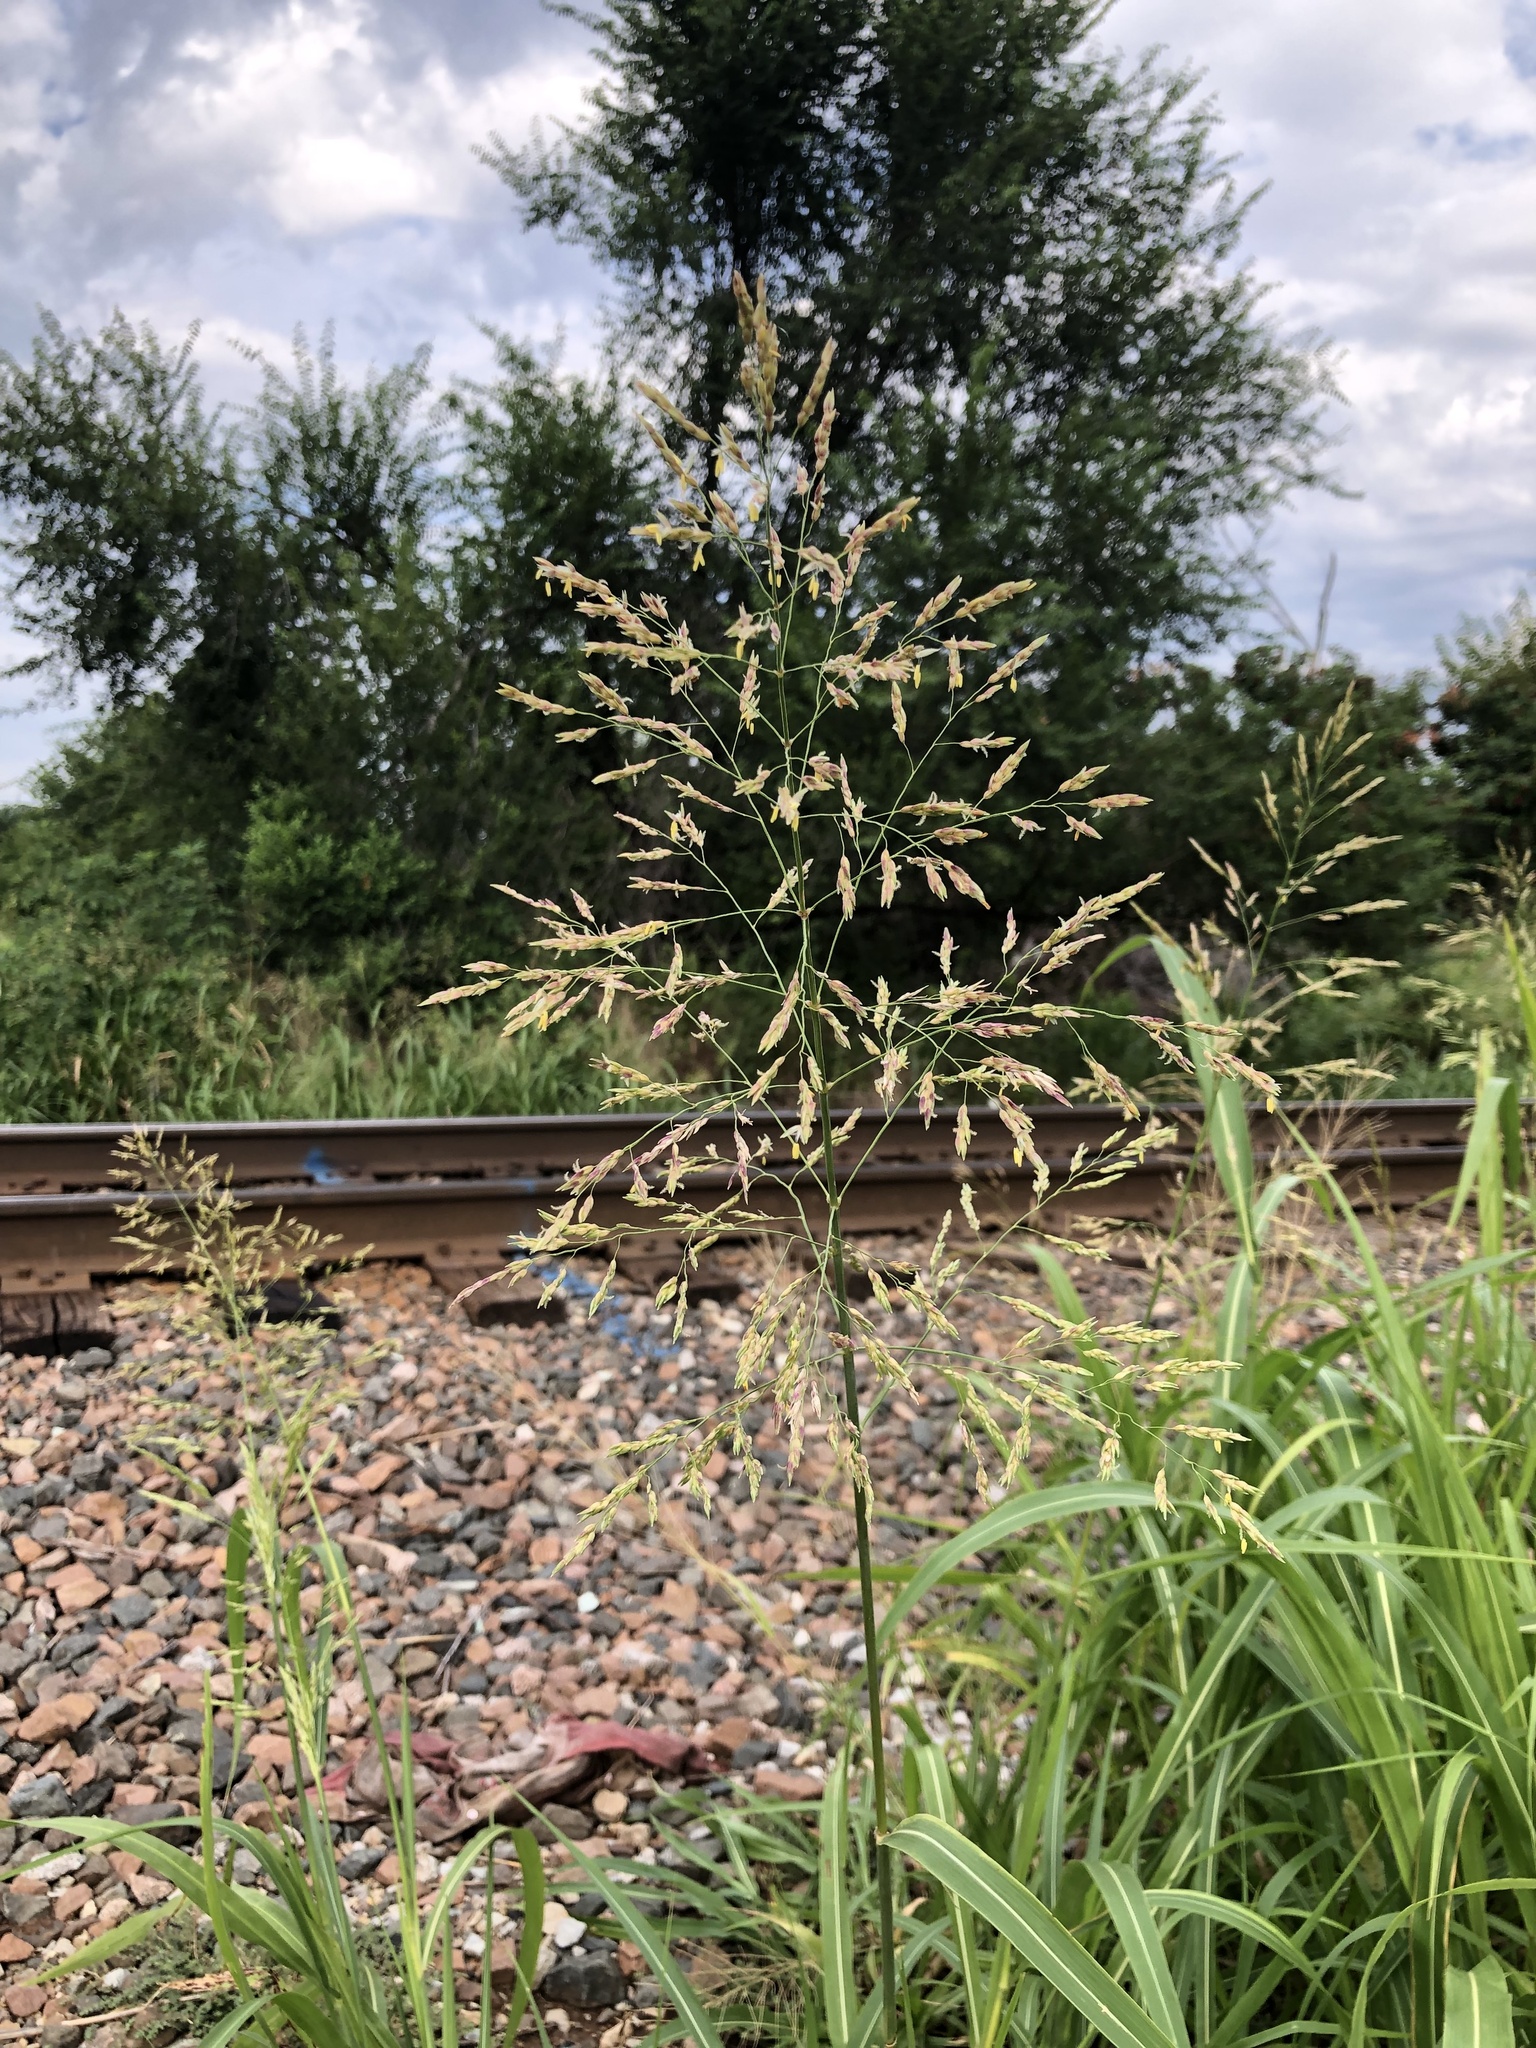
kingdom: Plantae
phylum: Tracheophyta
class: Liliopsida
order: Poales
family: Poaceae
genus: Sorghum
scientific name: Sorghum halepense
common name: Johnson-grass
